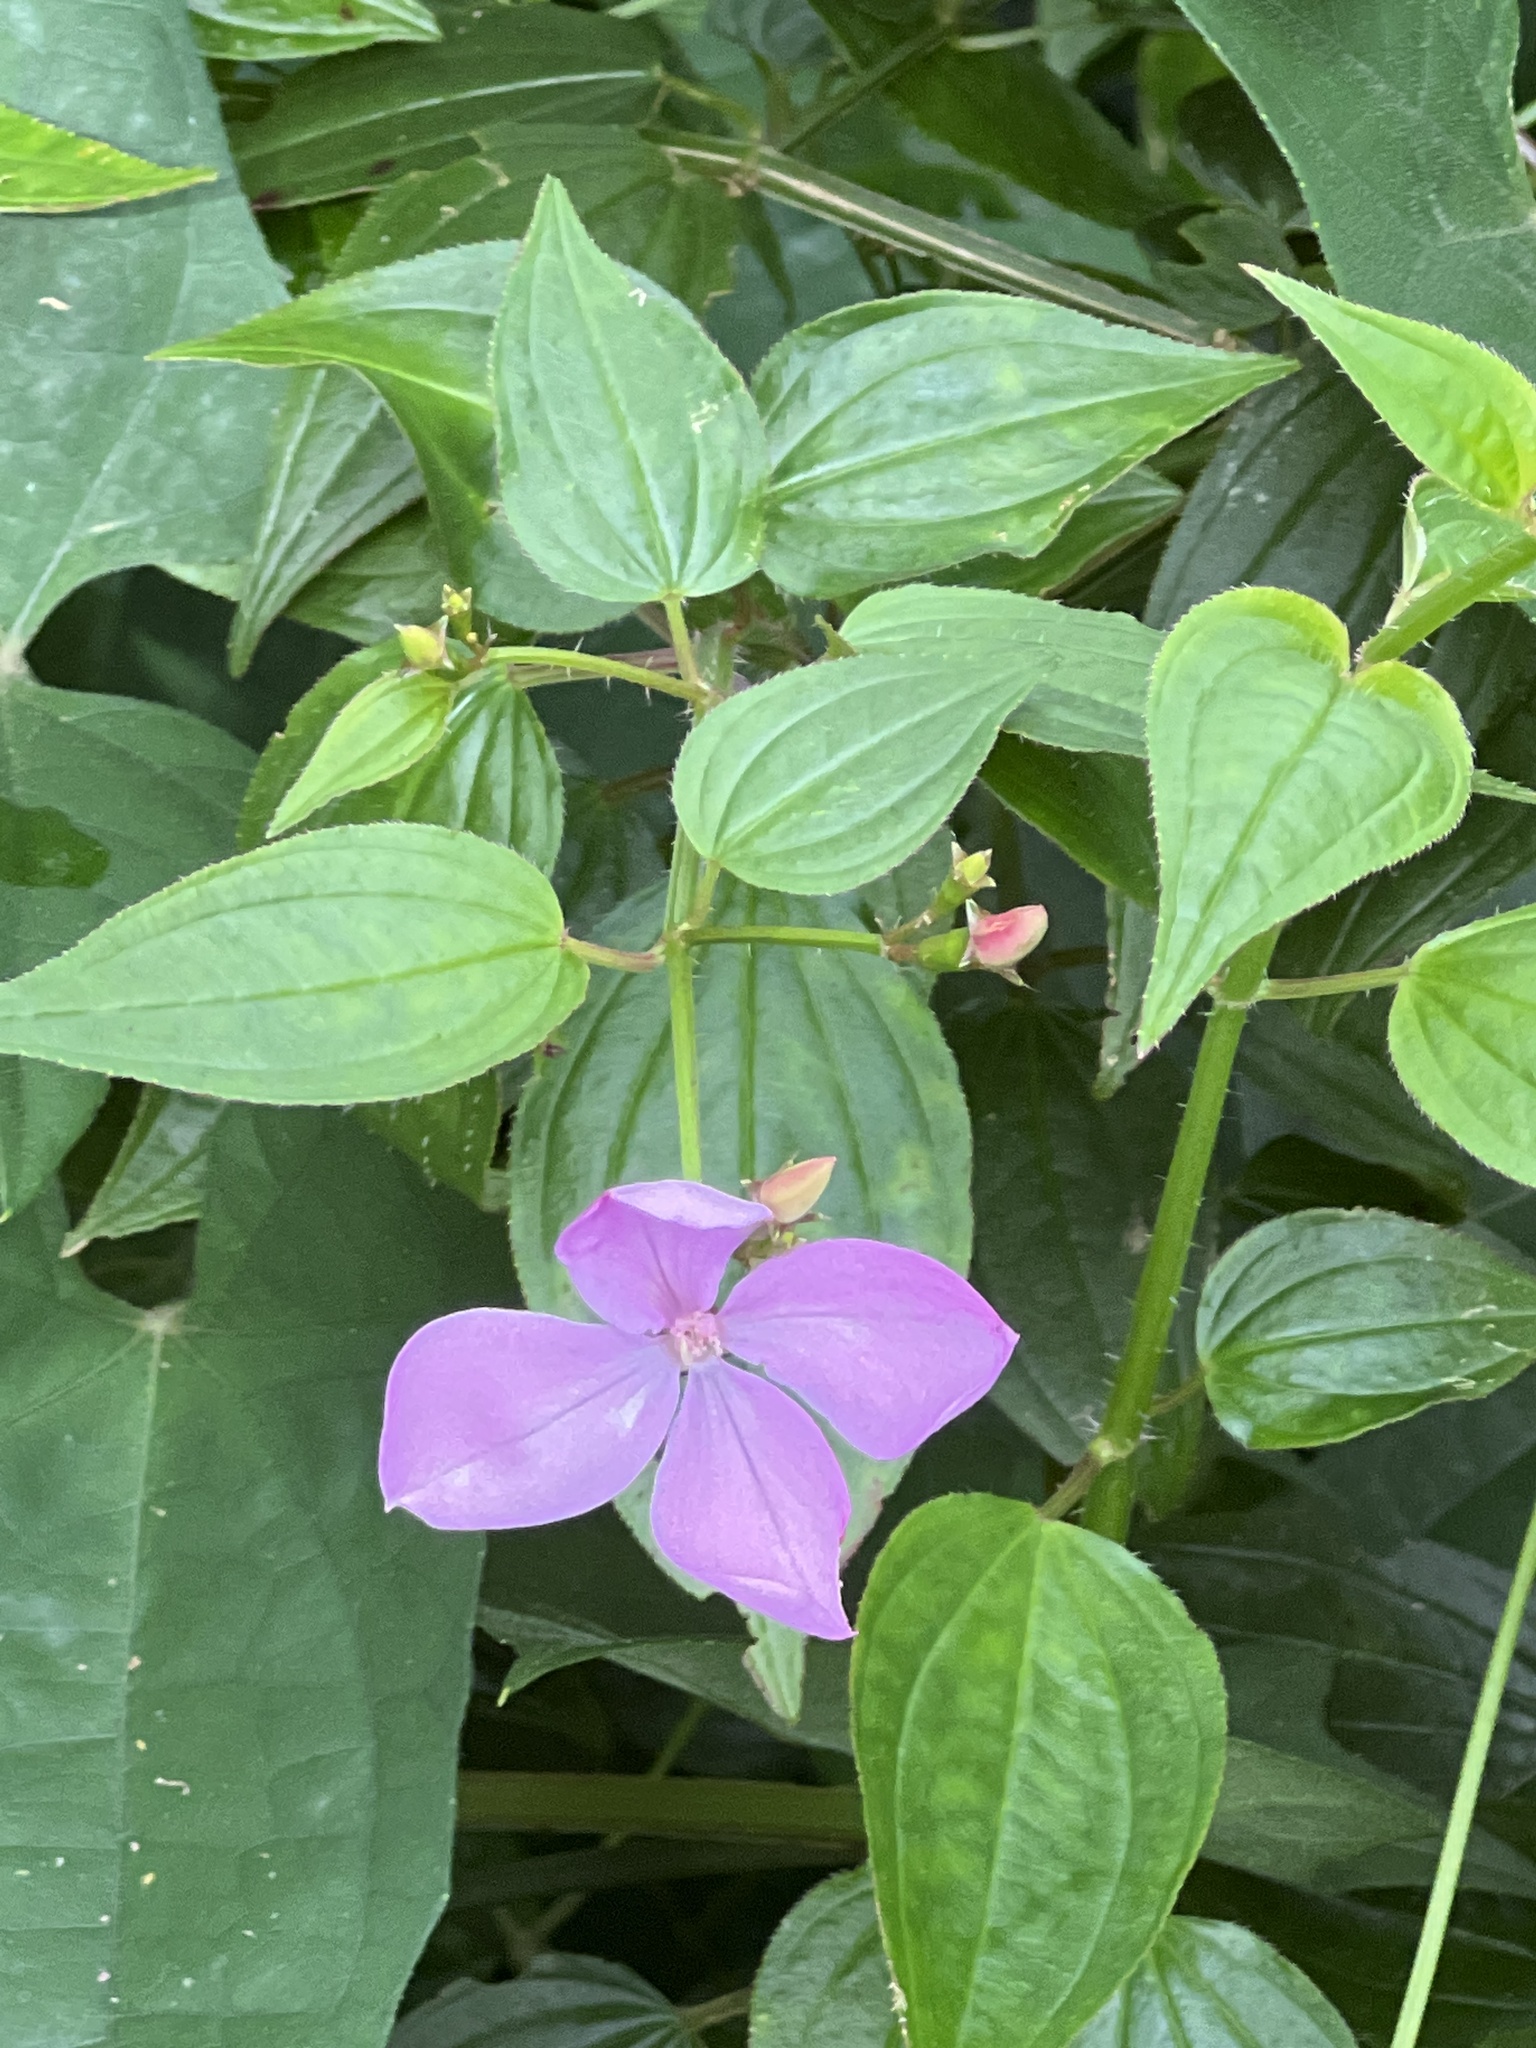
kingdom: Plantae
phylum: Tracheophyta
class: Magnoliopsida
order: Myrtales
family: Melastomataceae
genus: Arthrostemma
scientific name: Arthrostemma ciliatum
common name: Everblooming eavender
